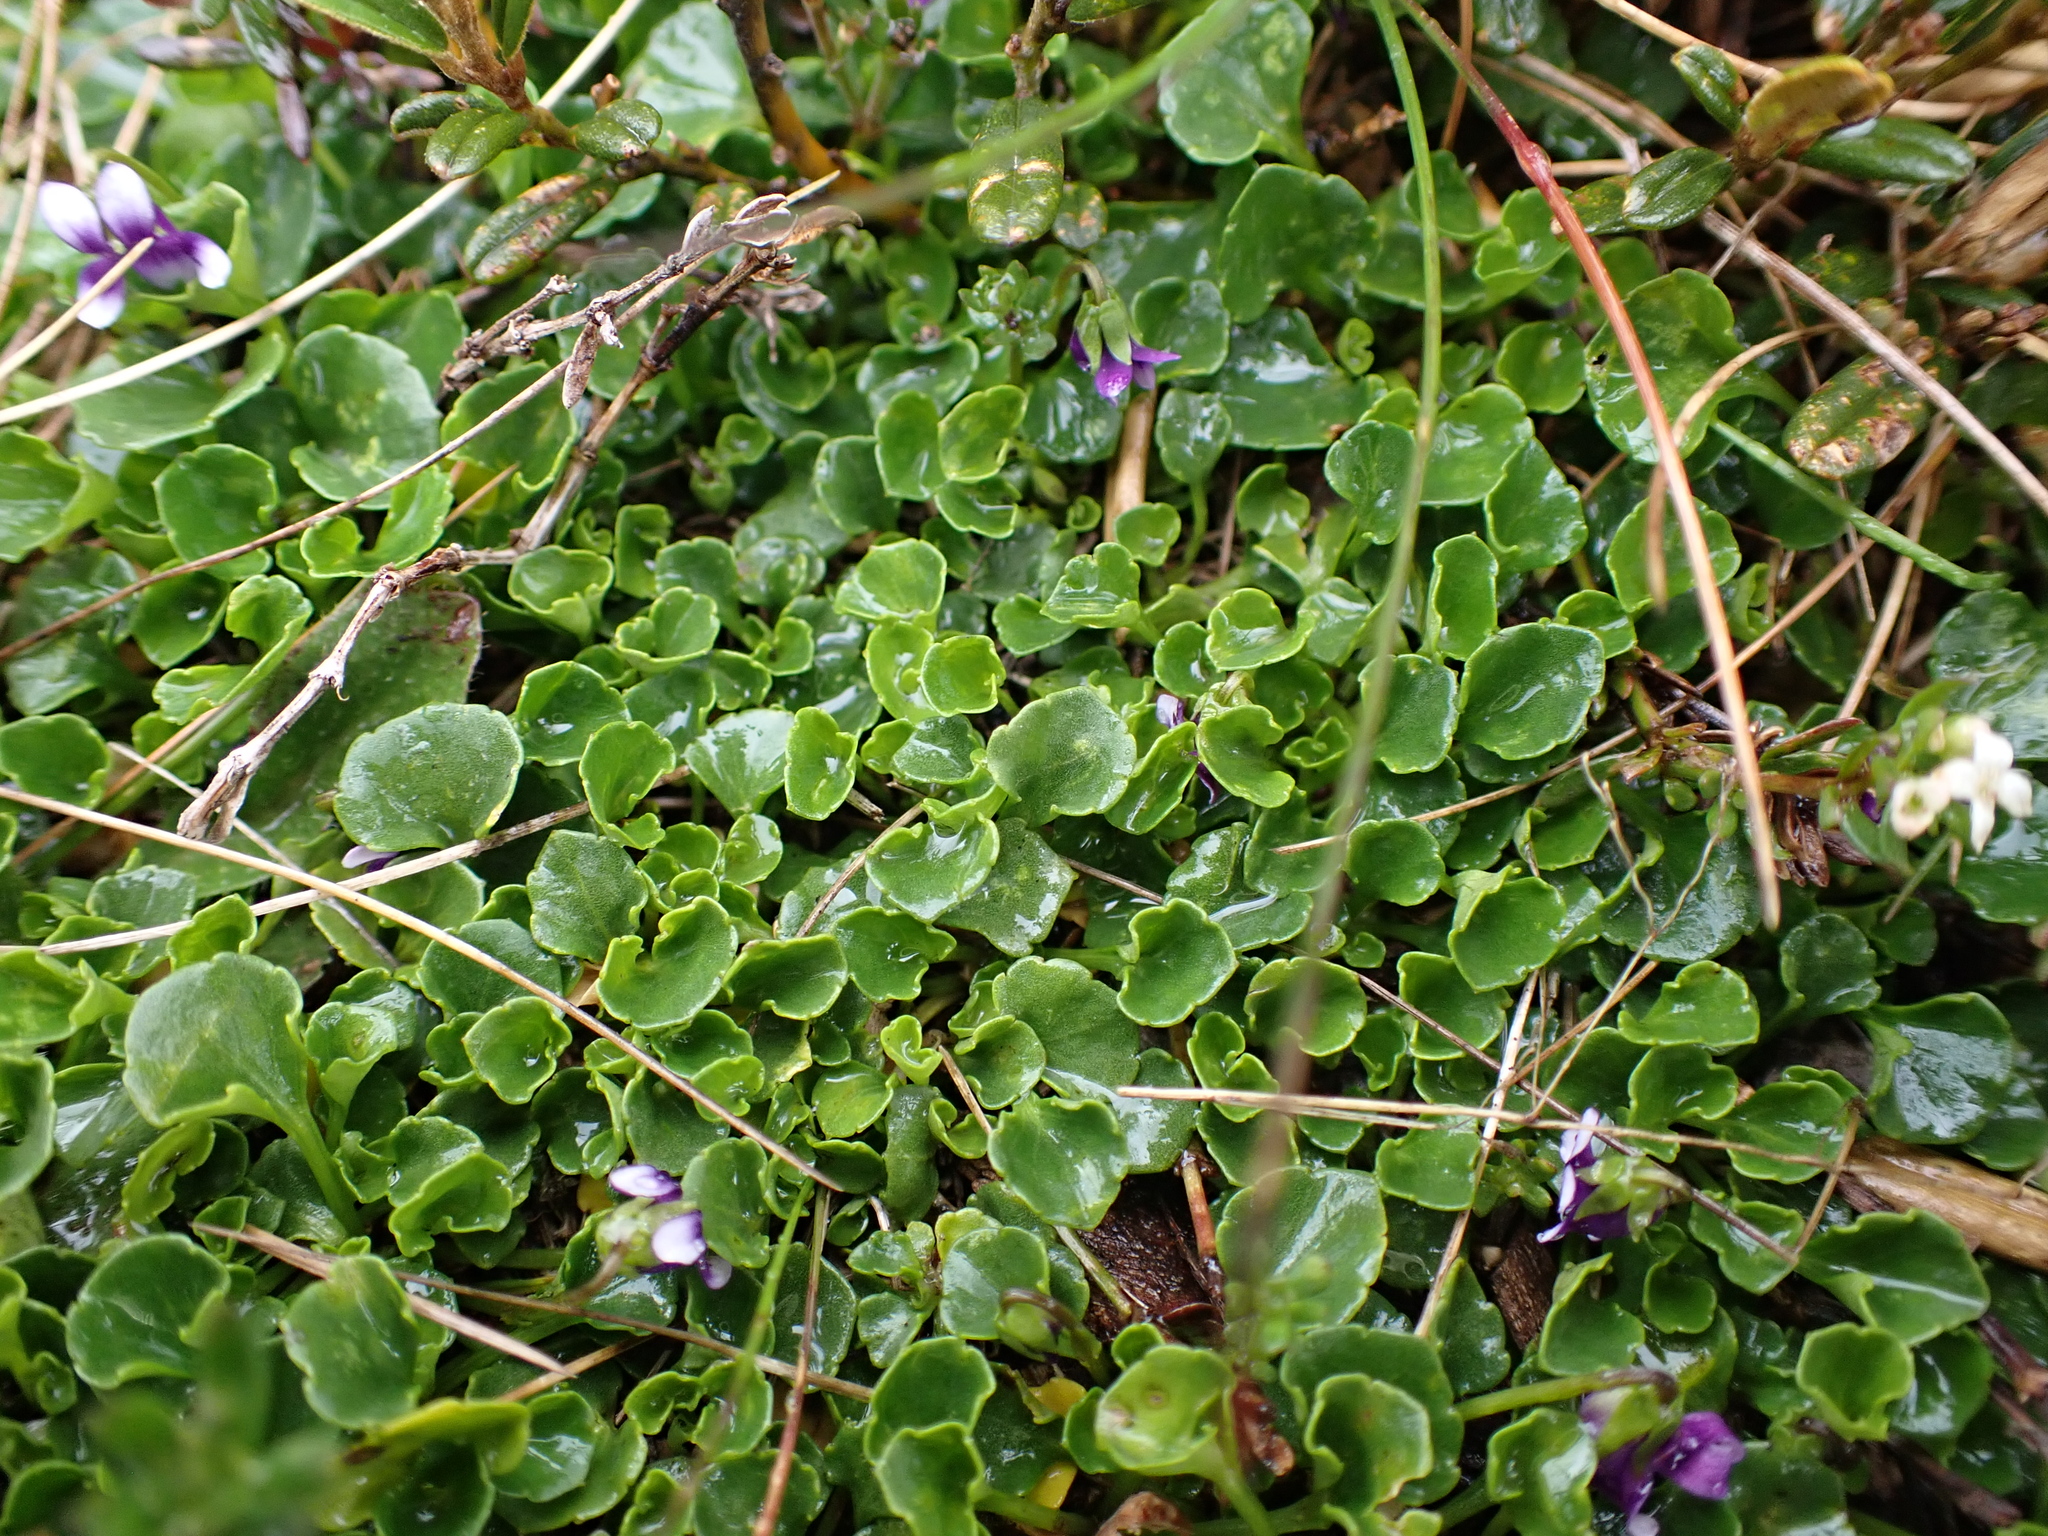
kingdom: Plantae
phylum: Tracheophyta
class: Magnoliopsida
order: Malpighiales
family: Violaceae
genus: Viola
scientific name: Viola hederacea
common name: Australian violet
